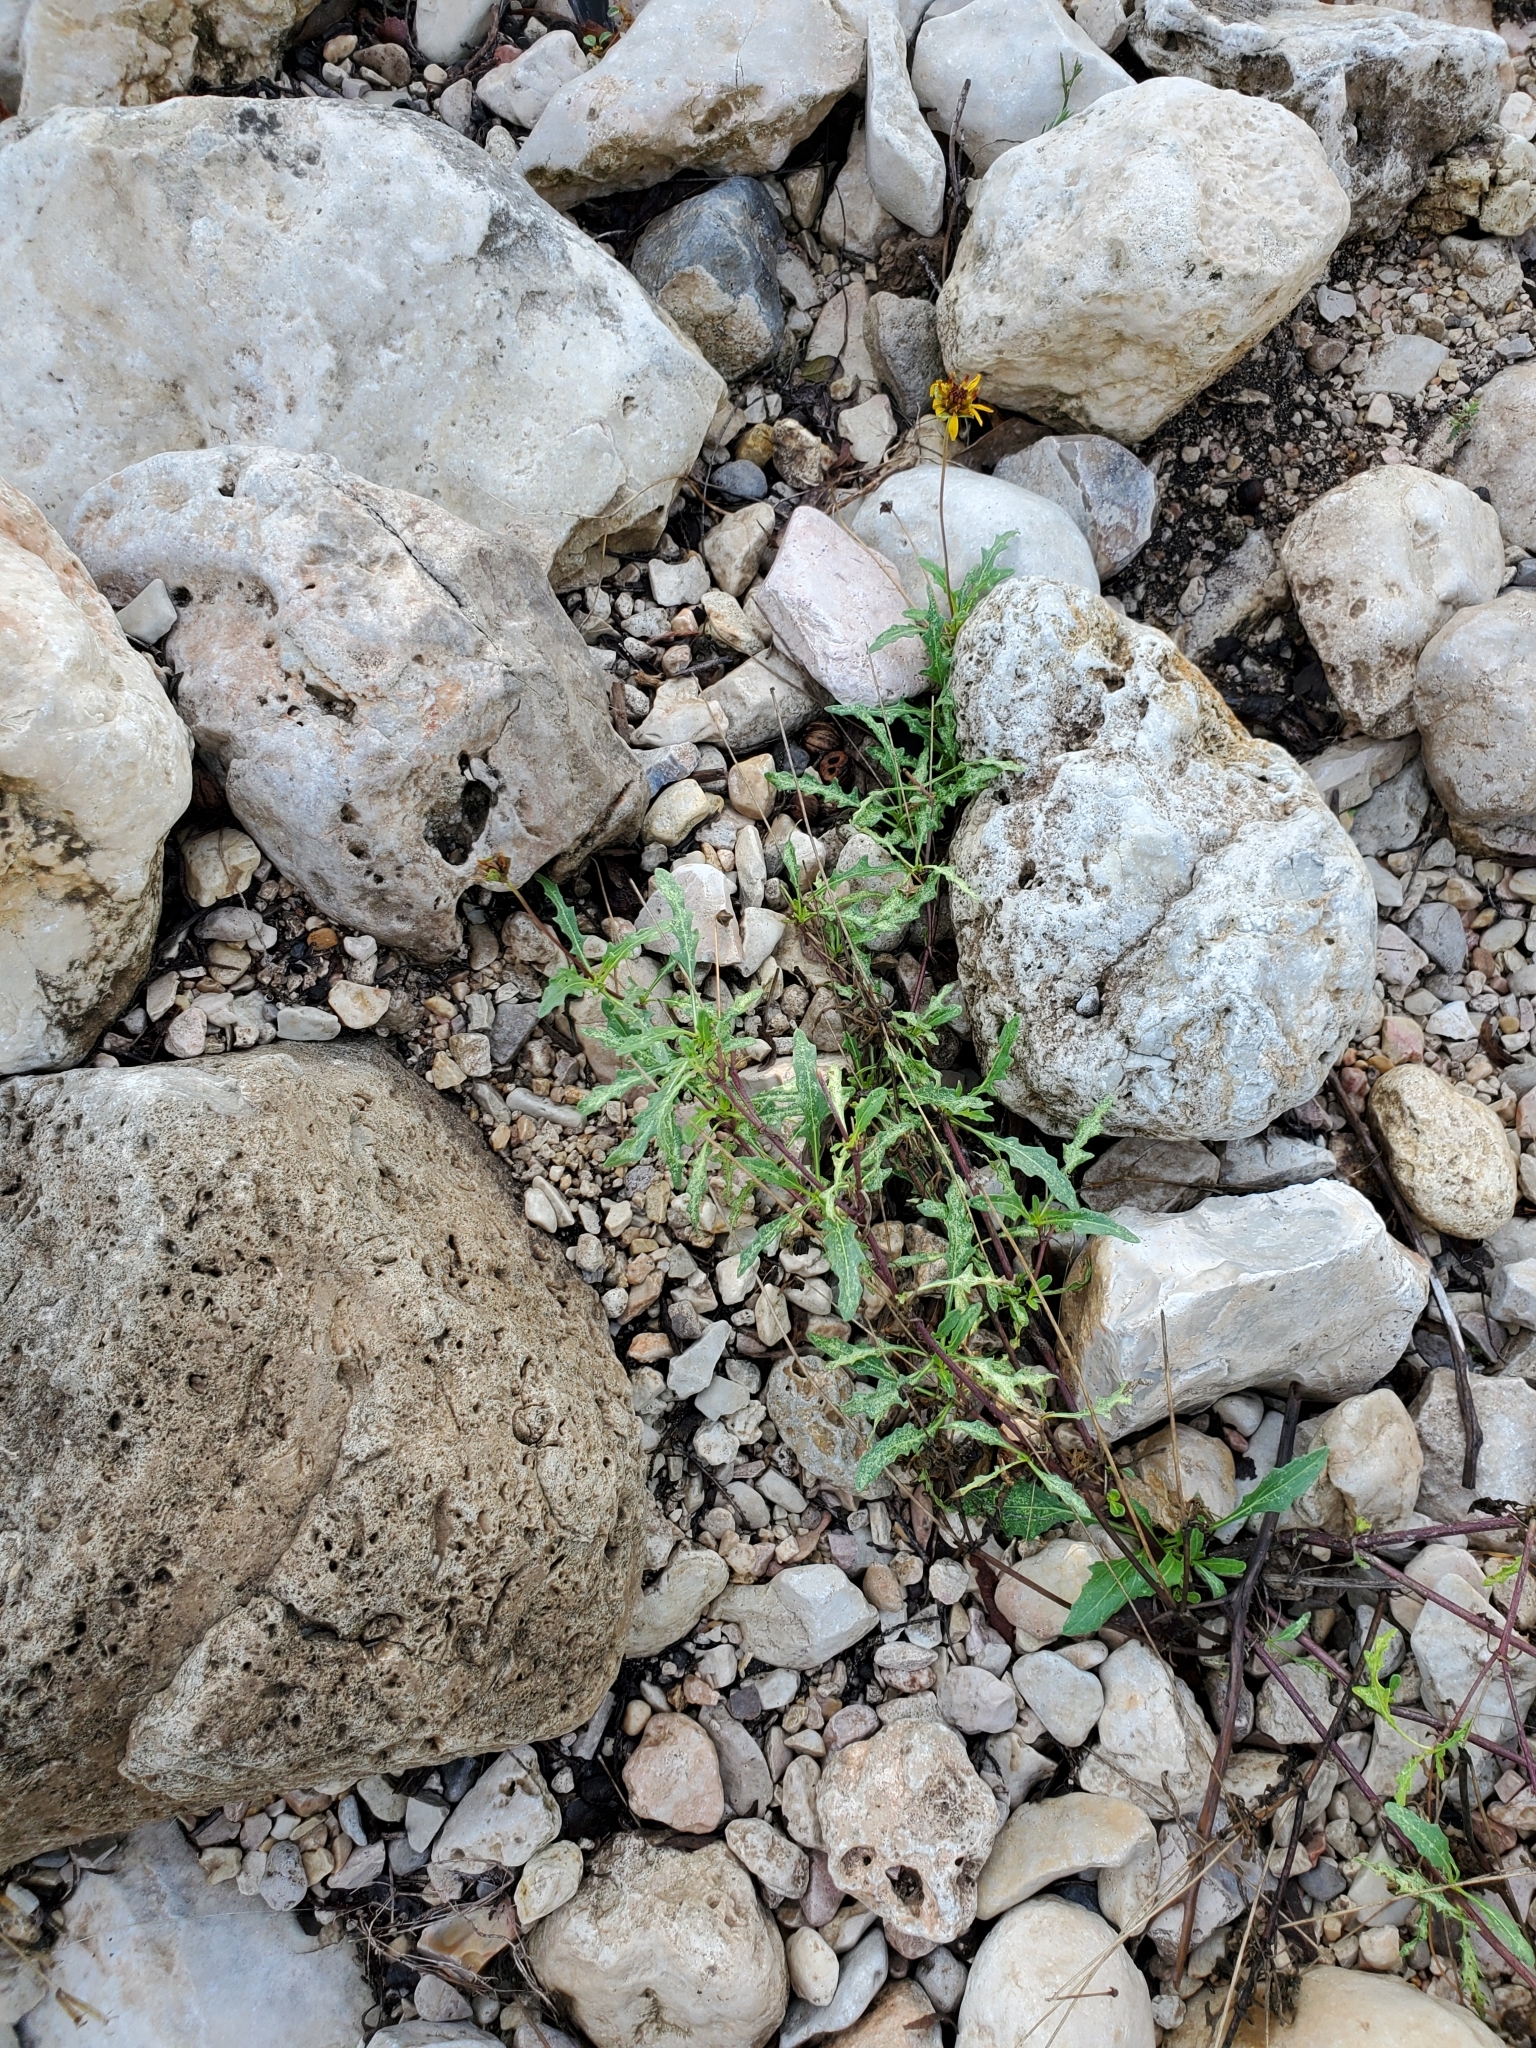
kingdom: Plantae
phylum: Tracheophyta
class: Magnoliopsida
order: Asterales
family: Asteraceae
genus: Tetragonotheca
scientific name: Tetragonotheca texana
